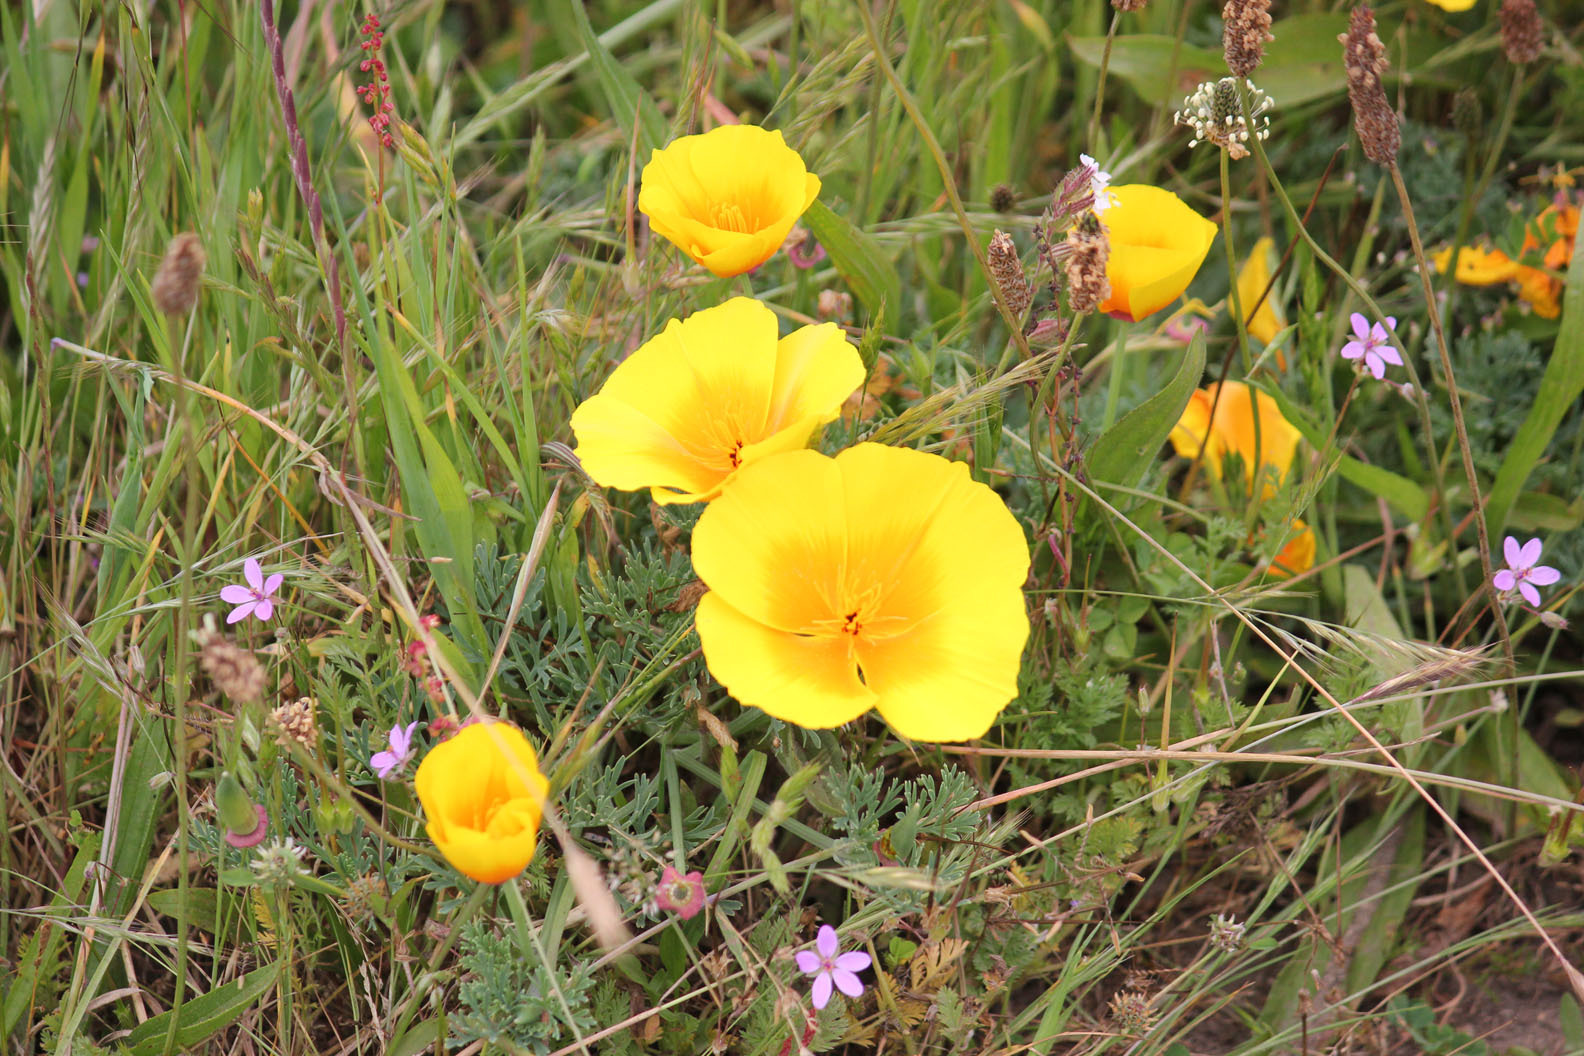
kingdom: Plantae
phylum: Tracheophyta
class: Magnoliopsida
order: Ranunculales
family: Papaveraceae
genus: Eschscholzia
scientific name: Eschscholzia californica
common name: California poppy
